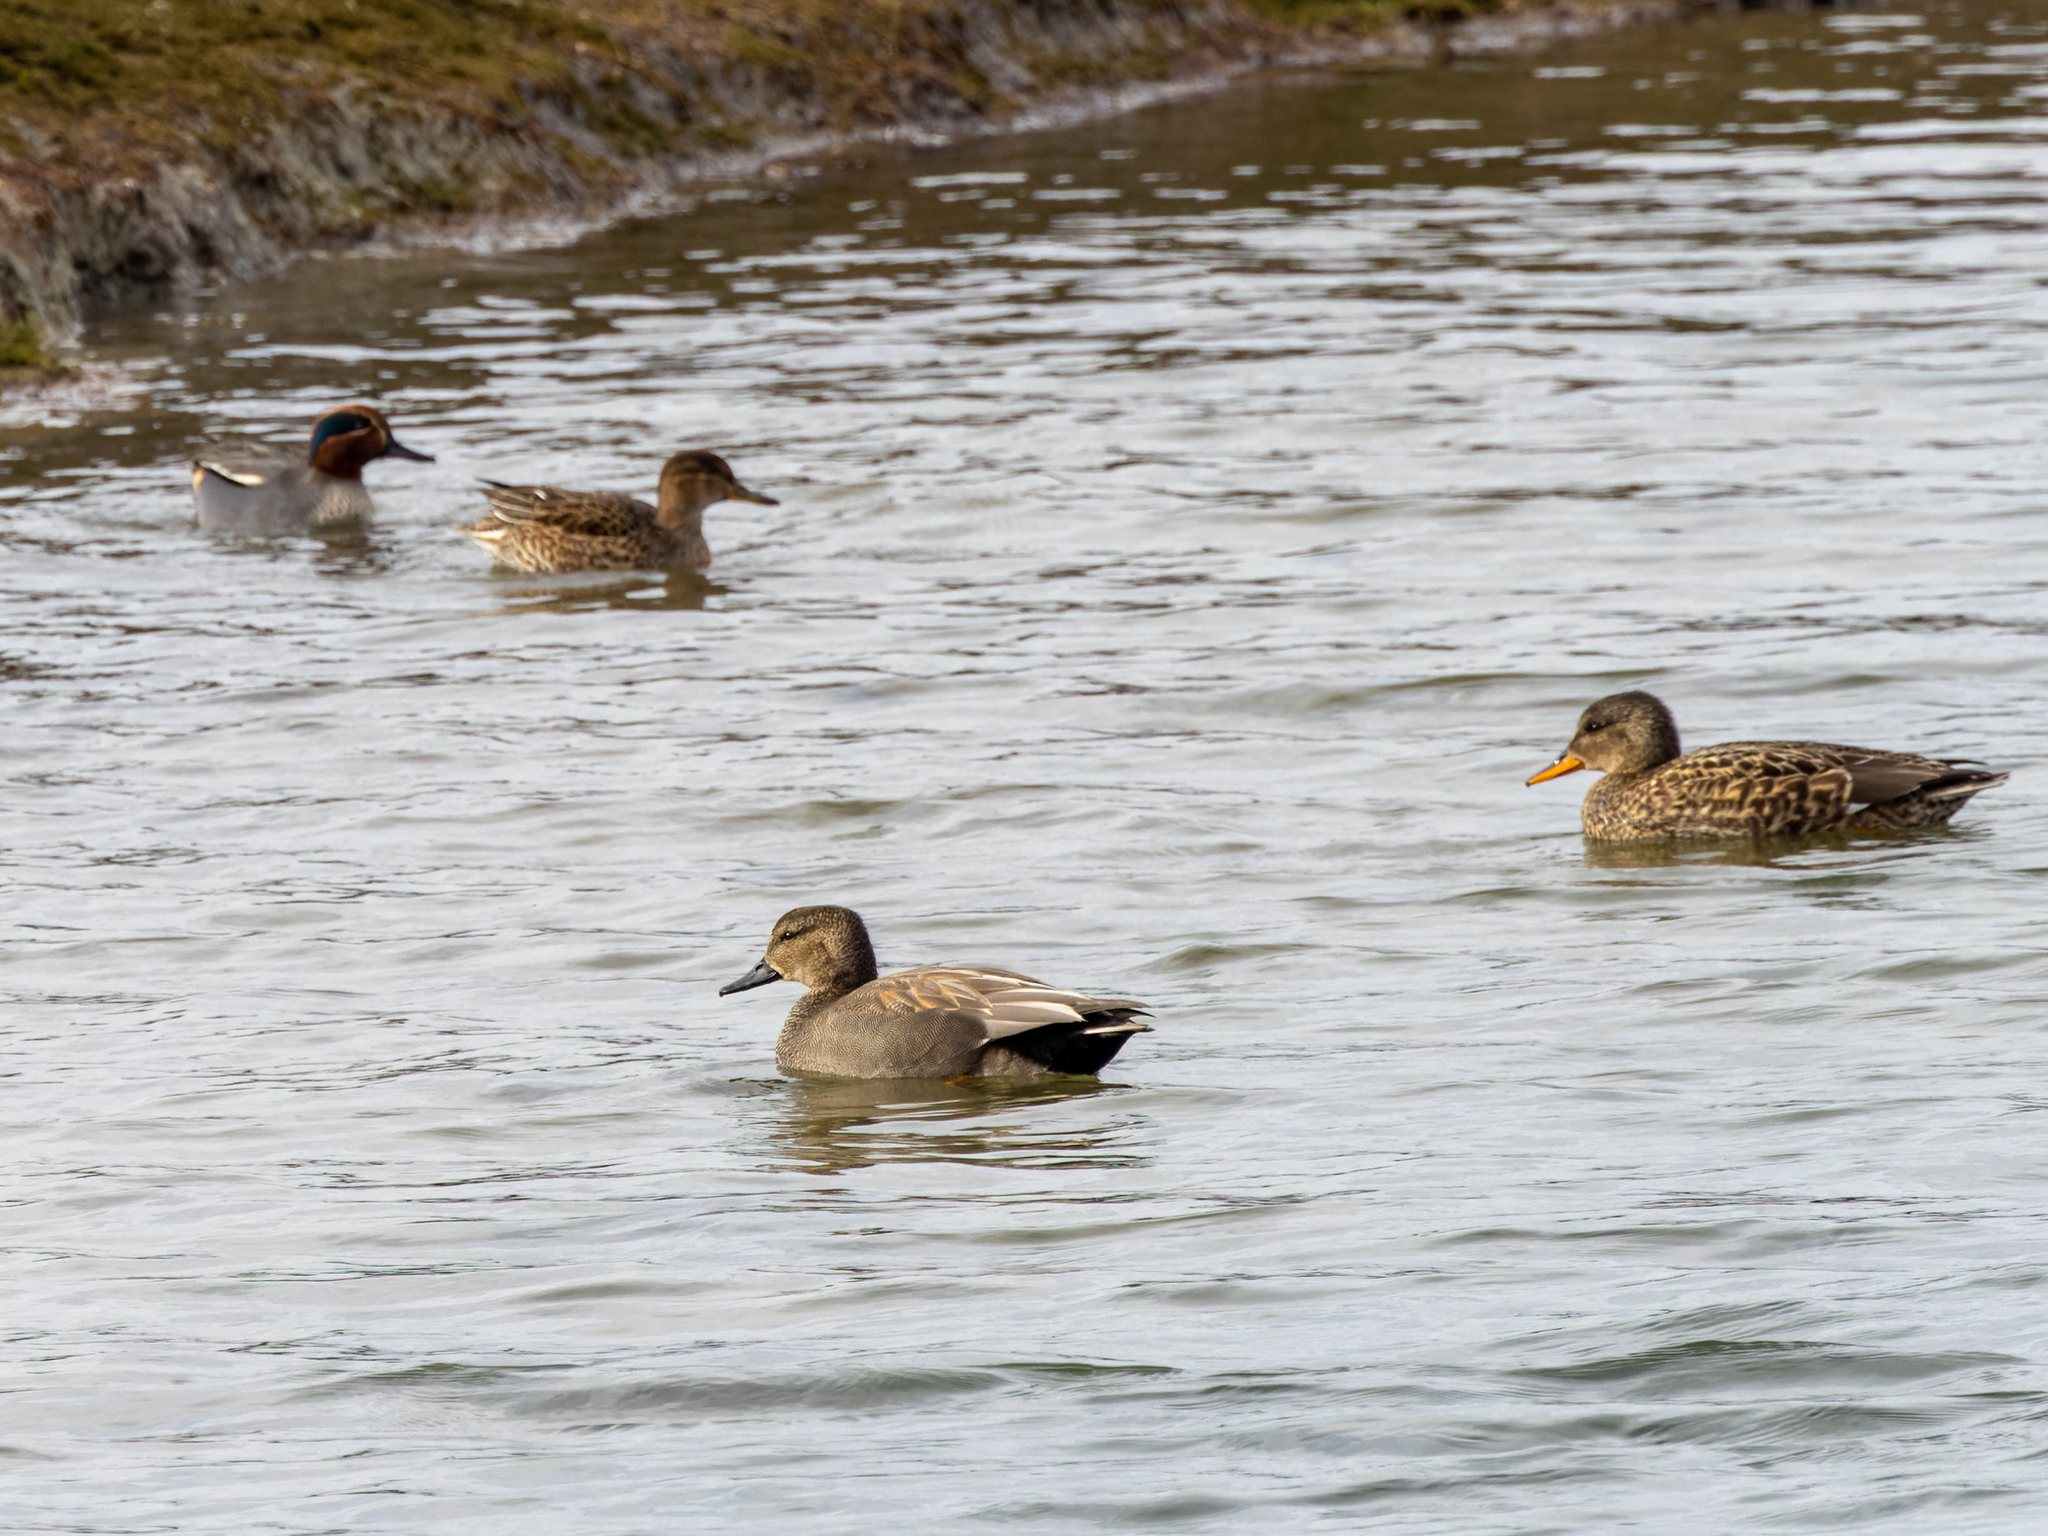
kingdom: Animalia
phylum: Chordata
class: Aves
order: Anseriformes
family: Anatidae
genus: Mareca
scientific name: Mareca strepera
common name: Gadwall
